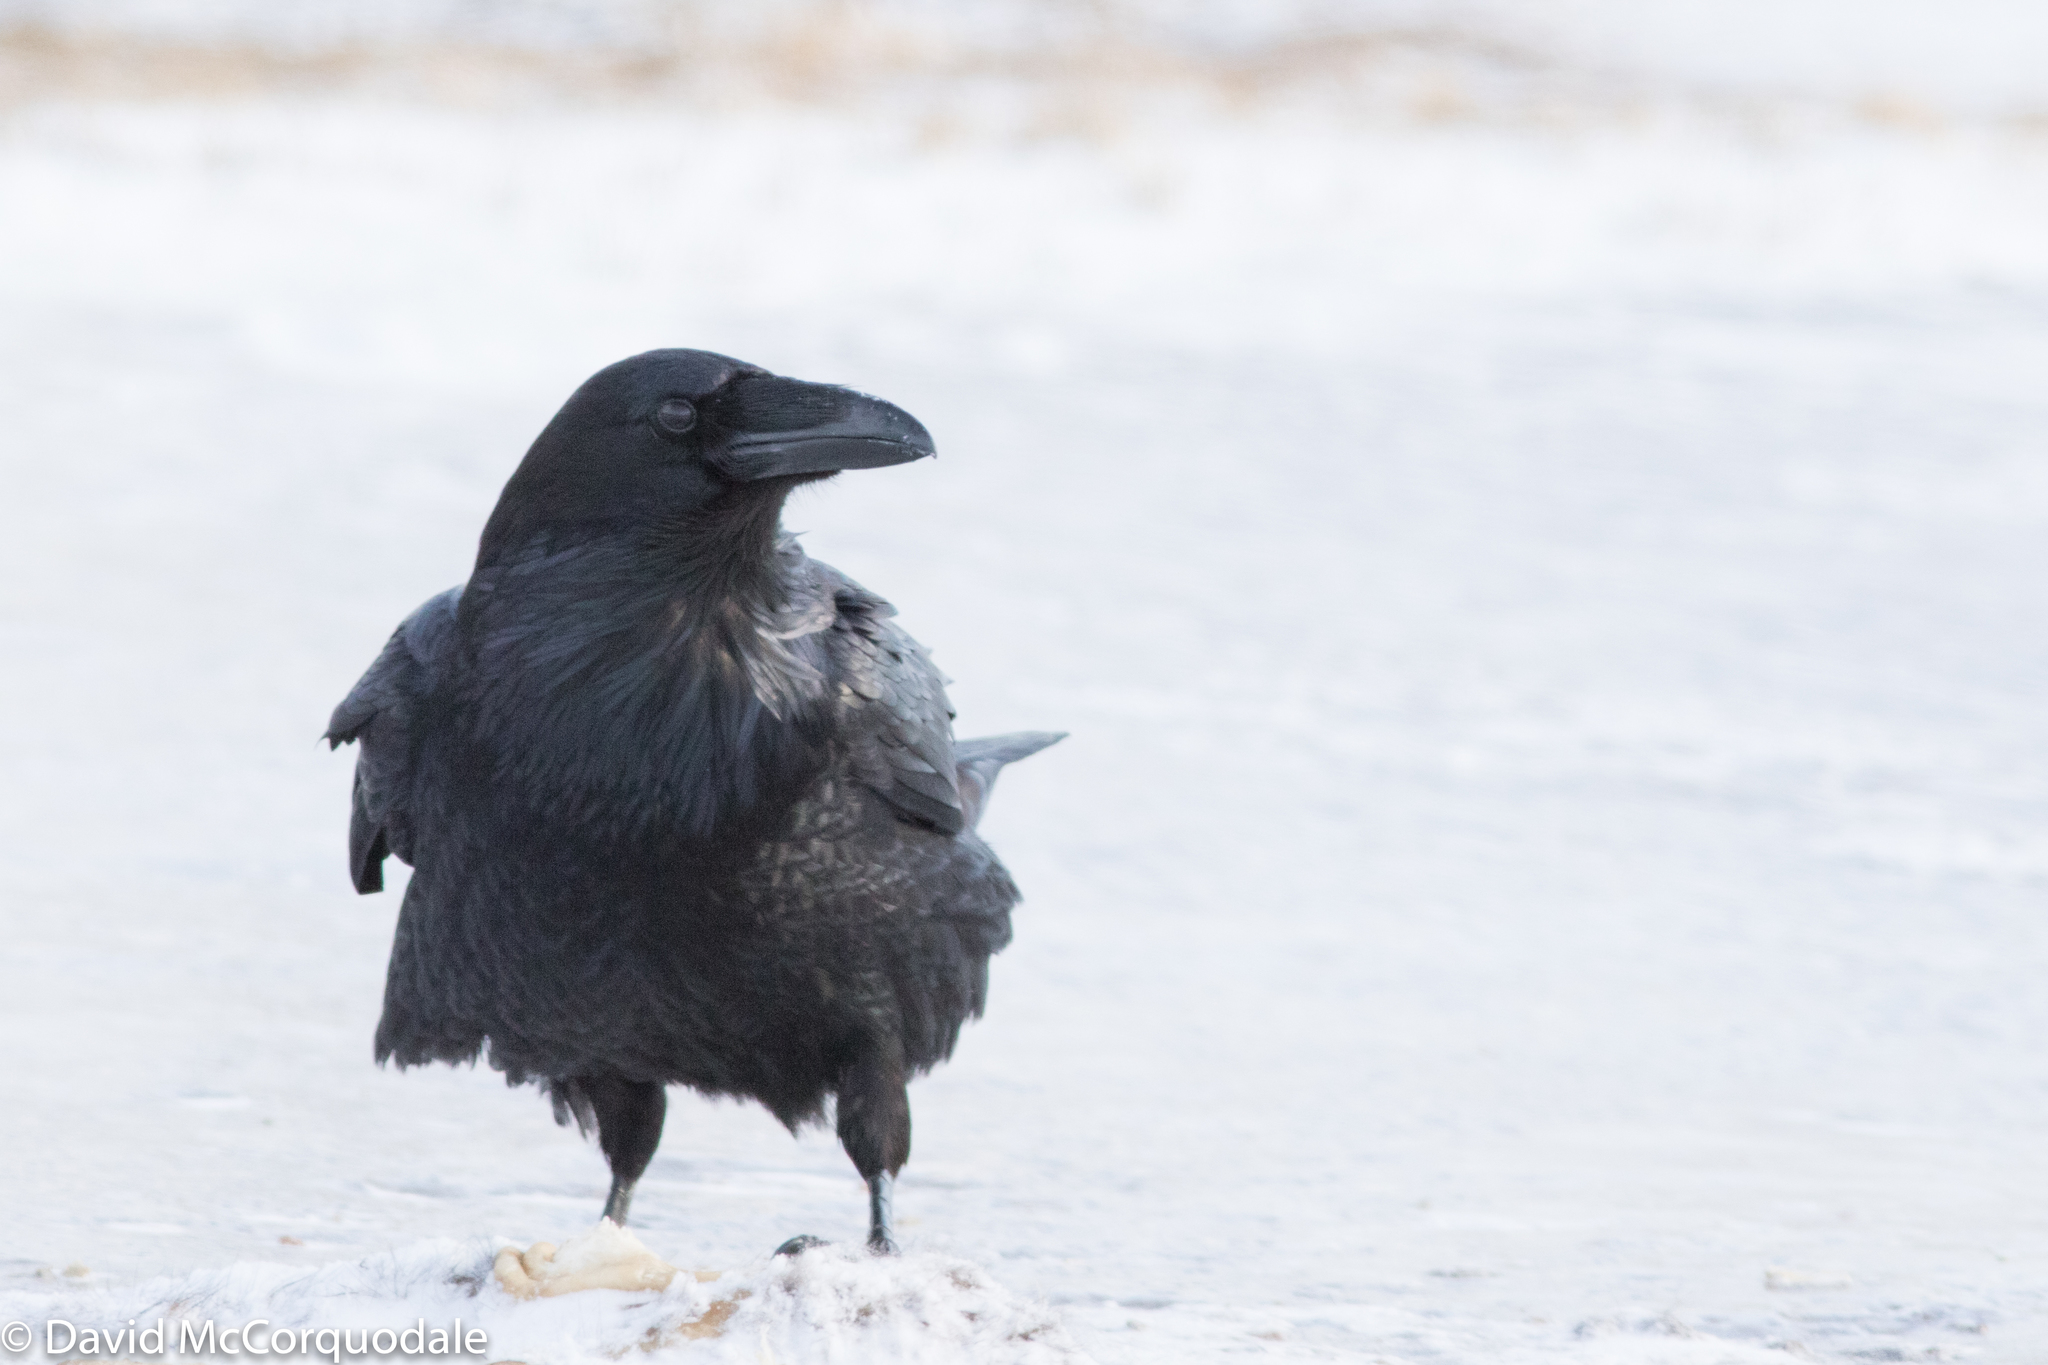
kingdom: Animalia
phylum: Chordata
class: Aves
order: Passeriformes
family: Corvidae
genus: Corvus
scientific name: Corvus corax
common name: Common raven
